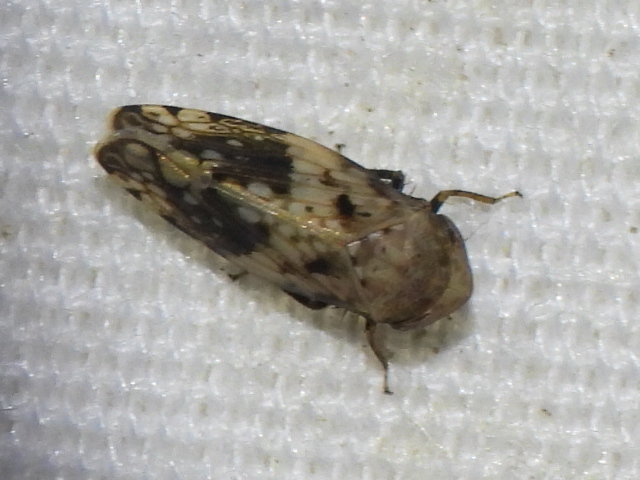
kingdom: Animalia
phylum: Arthropoda
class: Insecta
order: Hemiptera
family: Cicadellidae
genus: Menosoma
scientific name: Menosoma cinctum
